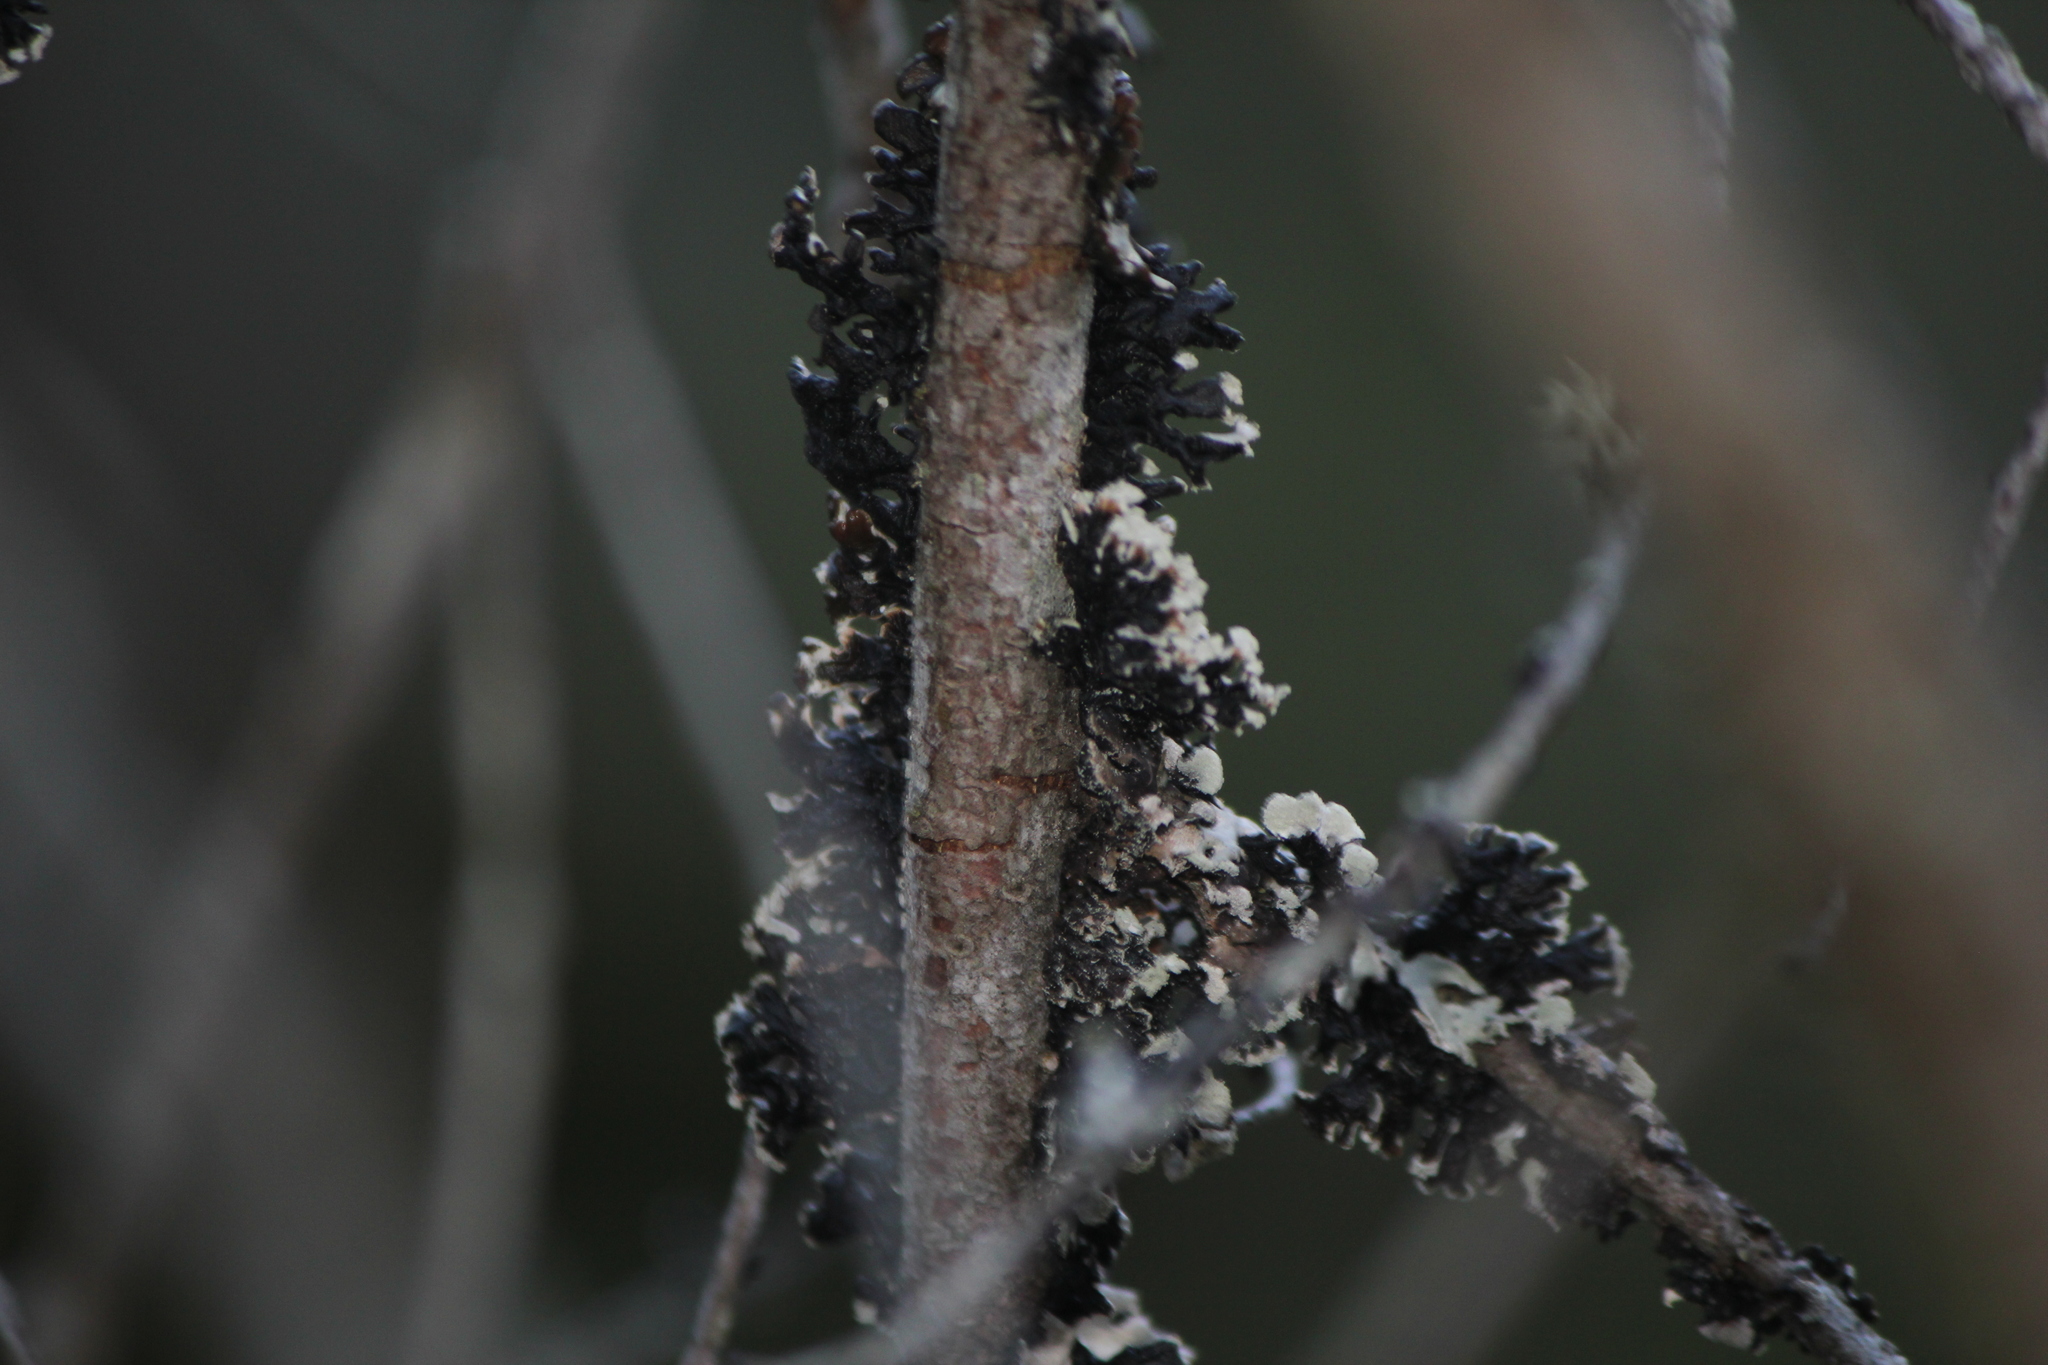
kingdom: Fungi
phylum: Ascomycota
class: Lecanoromycetes
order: Lecanorales
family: Parmeliaceae
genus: Hypogymnia
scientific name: Hypogymnia physodes
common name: Dark crottle
